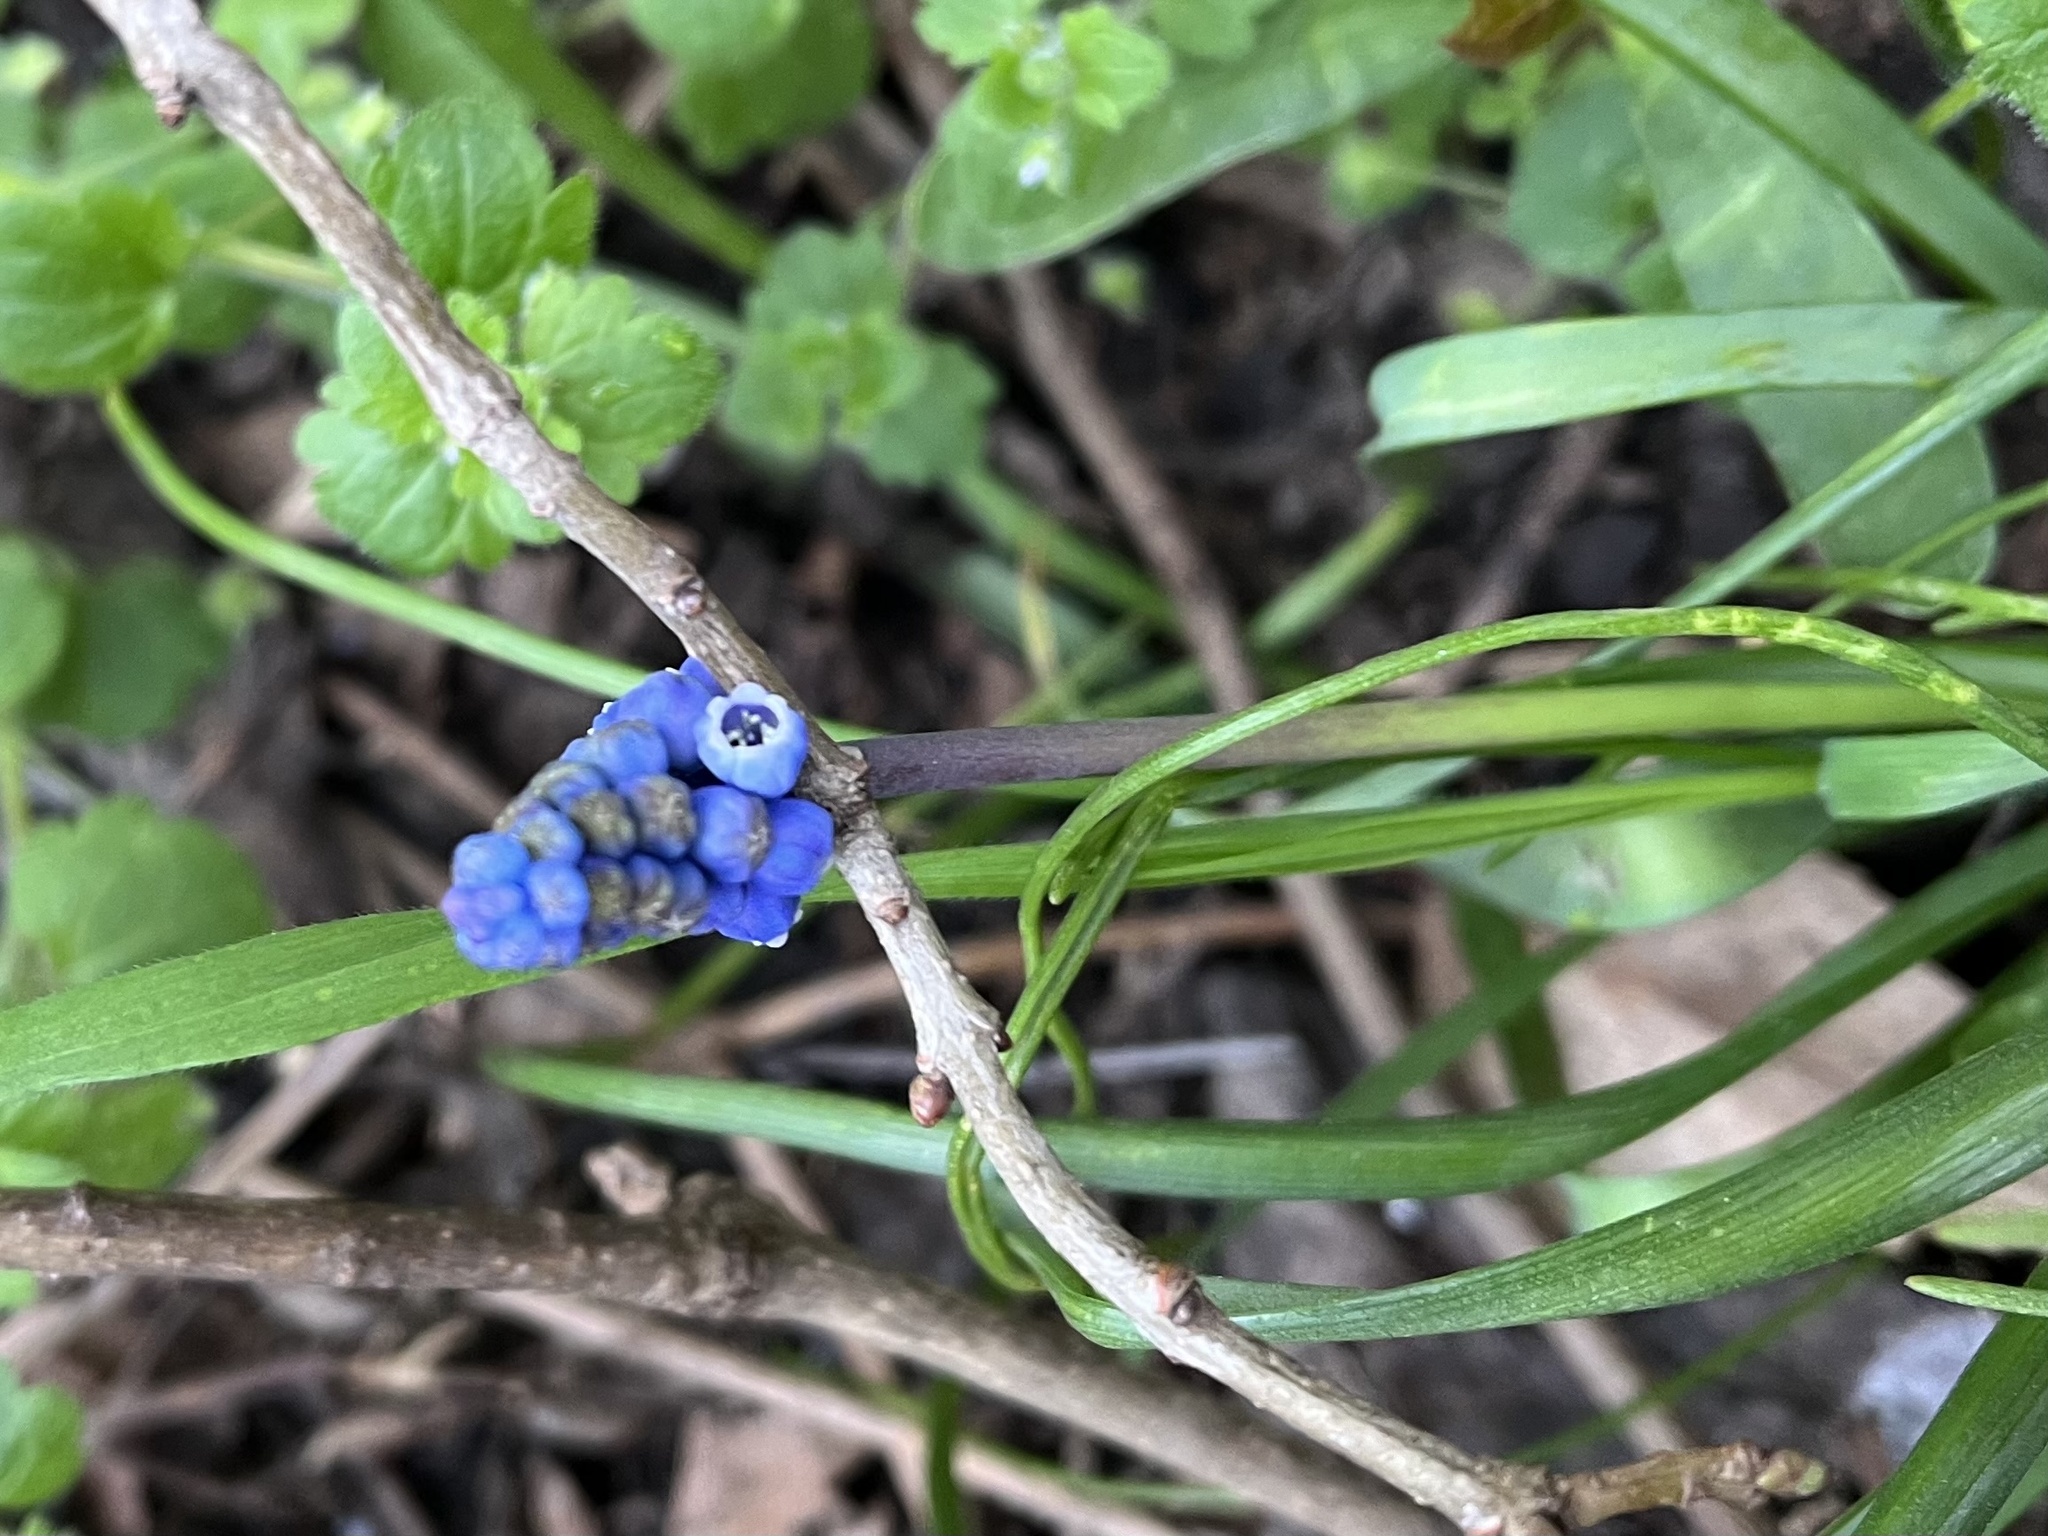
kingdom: Plantae
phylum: Tracheophyta
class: Liliopsida
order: Asparagales
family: Asparagaceae
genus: Muscari
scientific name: Muscari armeniacum
